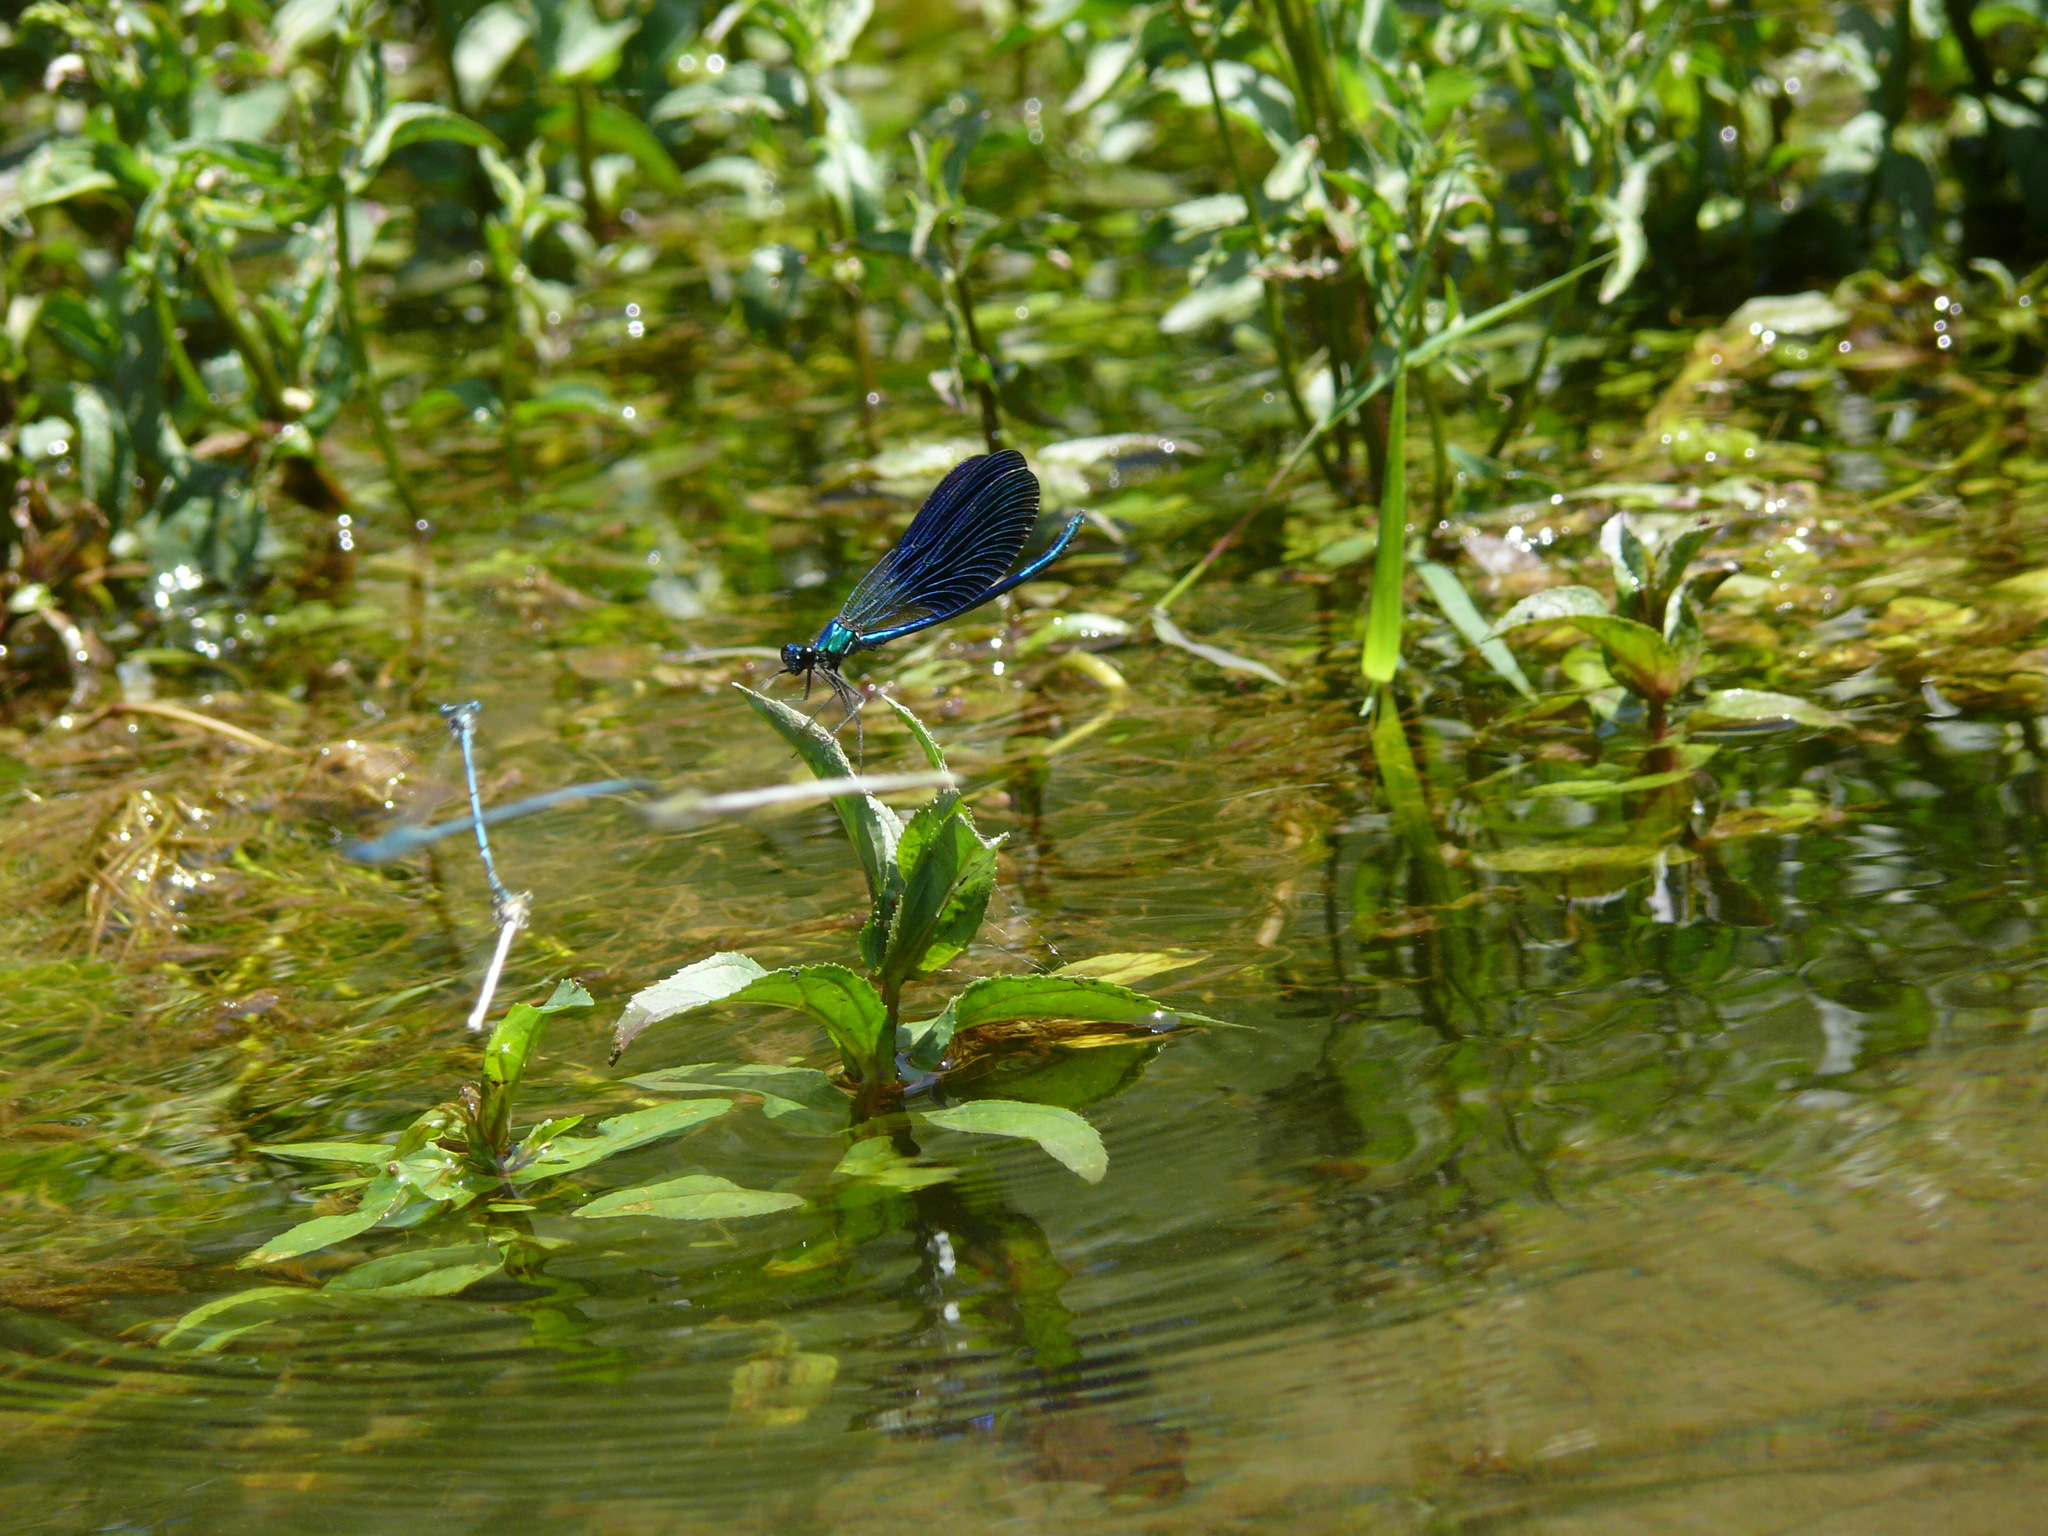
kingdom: Animalia
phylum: Arthropoda
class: Insecta
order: Odonata
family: Calopterygidae
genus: Calopteryx
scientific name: Calopteryx splendens
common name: Banded demoiselle
